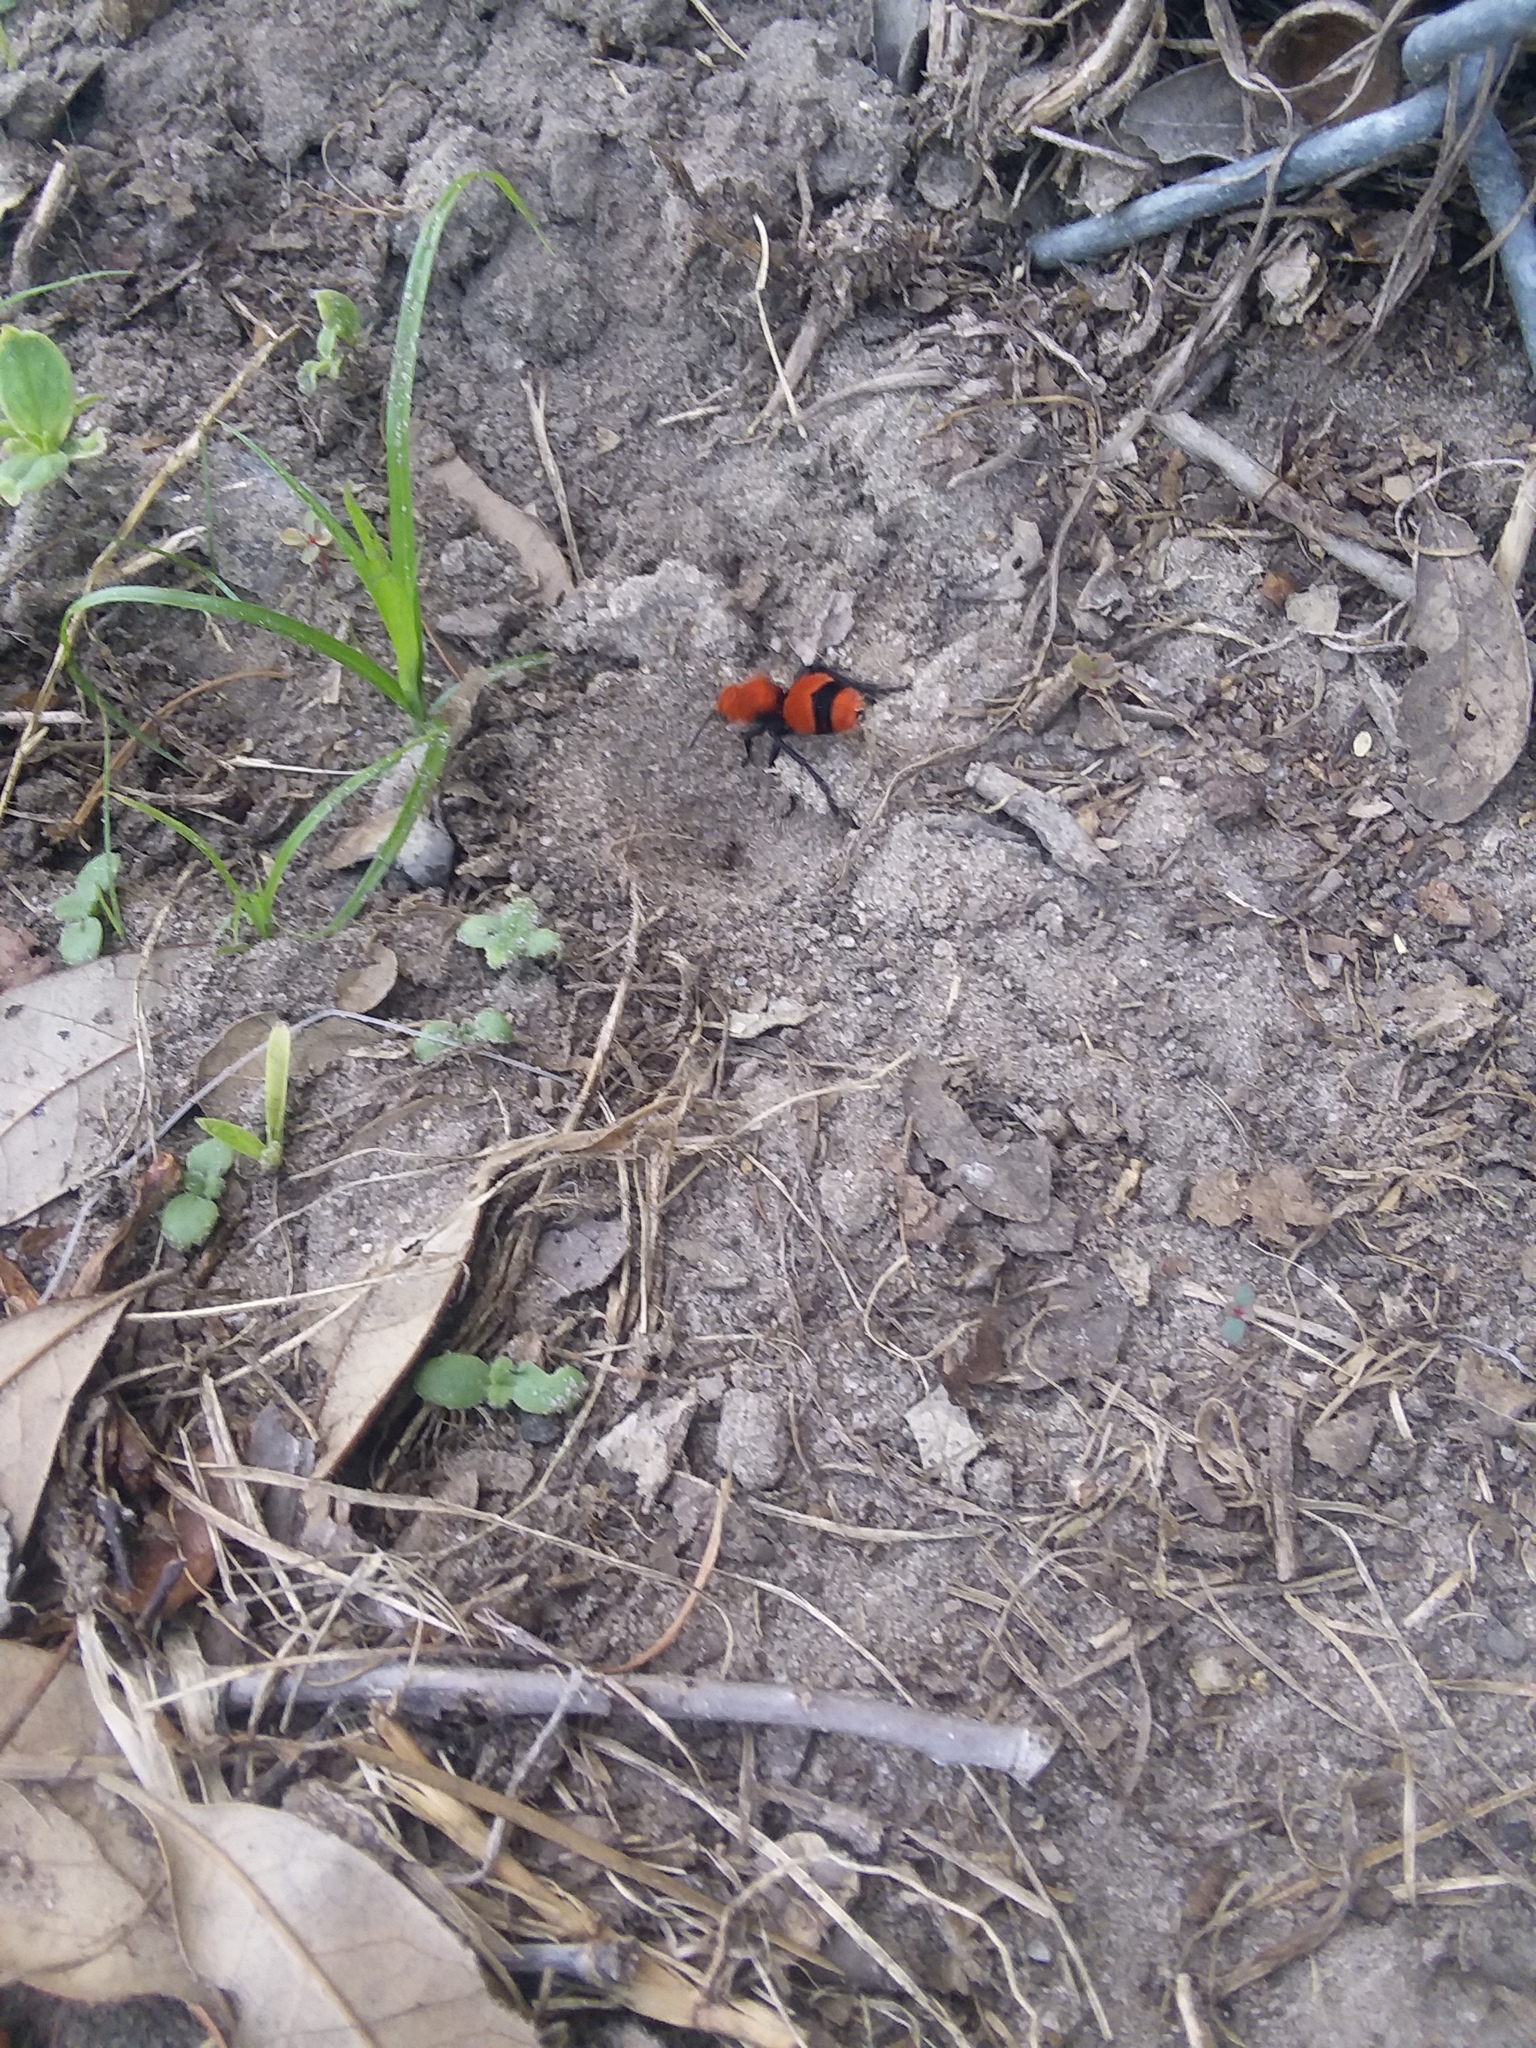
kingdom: Animalia
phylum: Arthropoda
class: Insecta
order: Hymenoptera
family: Mutillidae
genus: Dasymutilla
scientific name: Dasymutilla occidentalis
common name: Common eastern velvet ant
